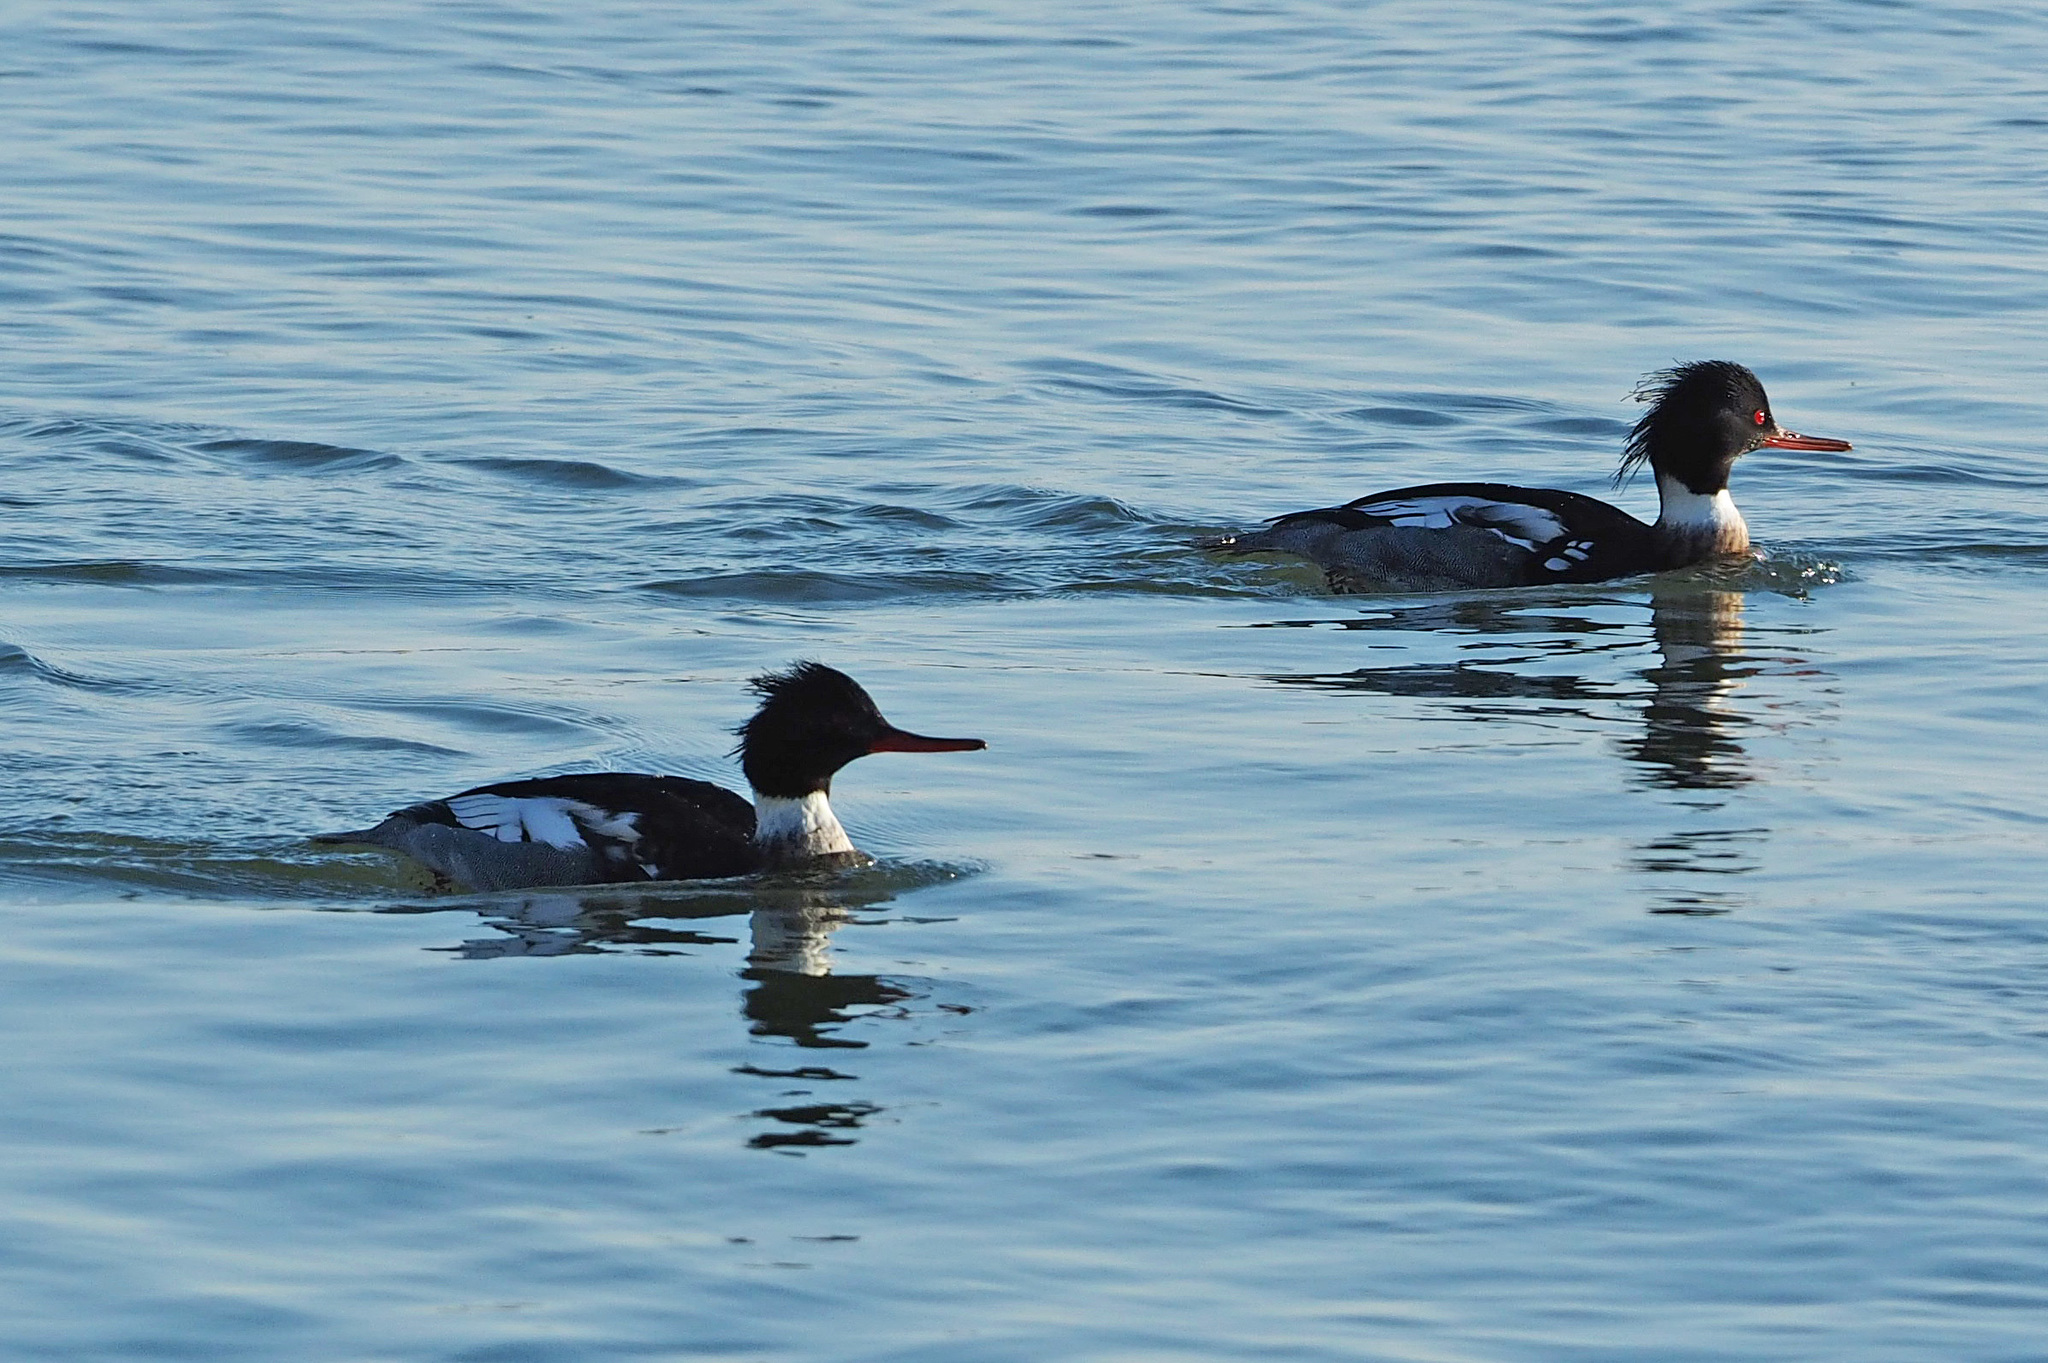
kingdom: Animalia
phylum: Chordata
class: Aves
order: Anseriformes
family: Anatidae
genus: Mergus
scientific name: Mergus serrator
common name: Red-breasted merganser
